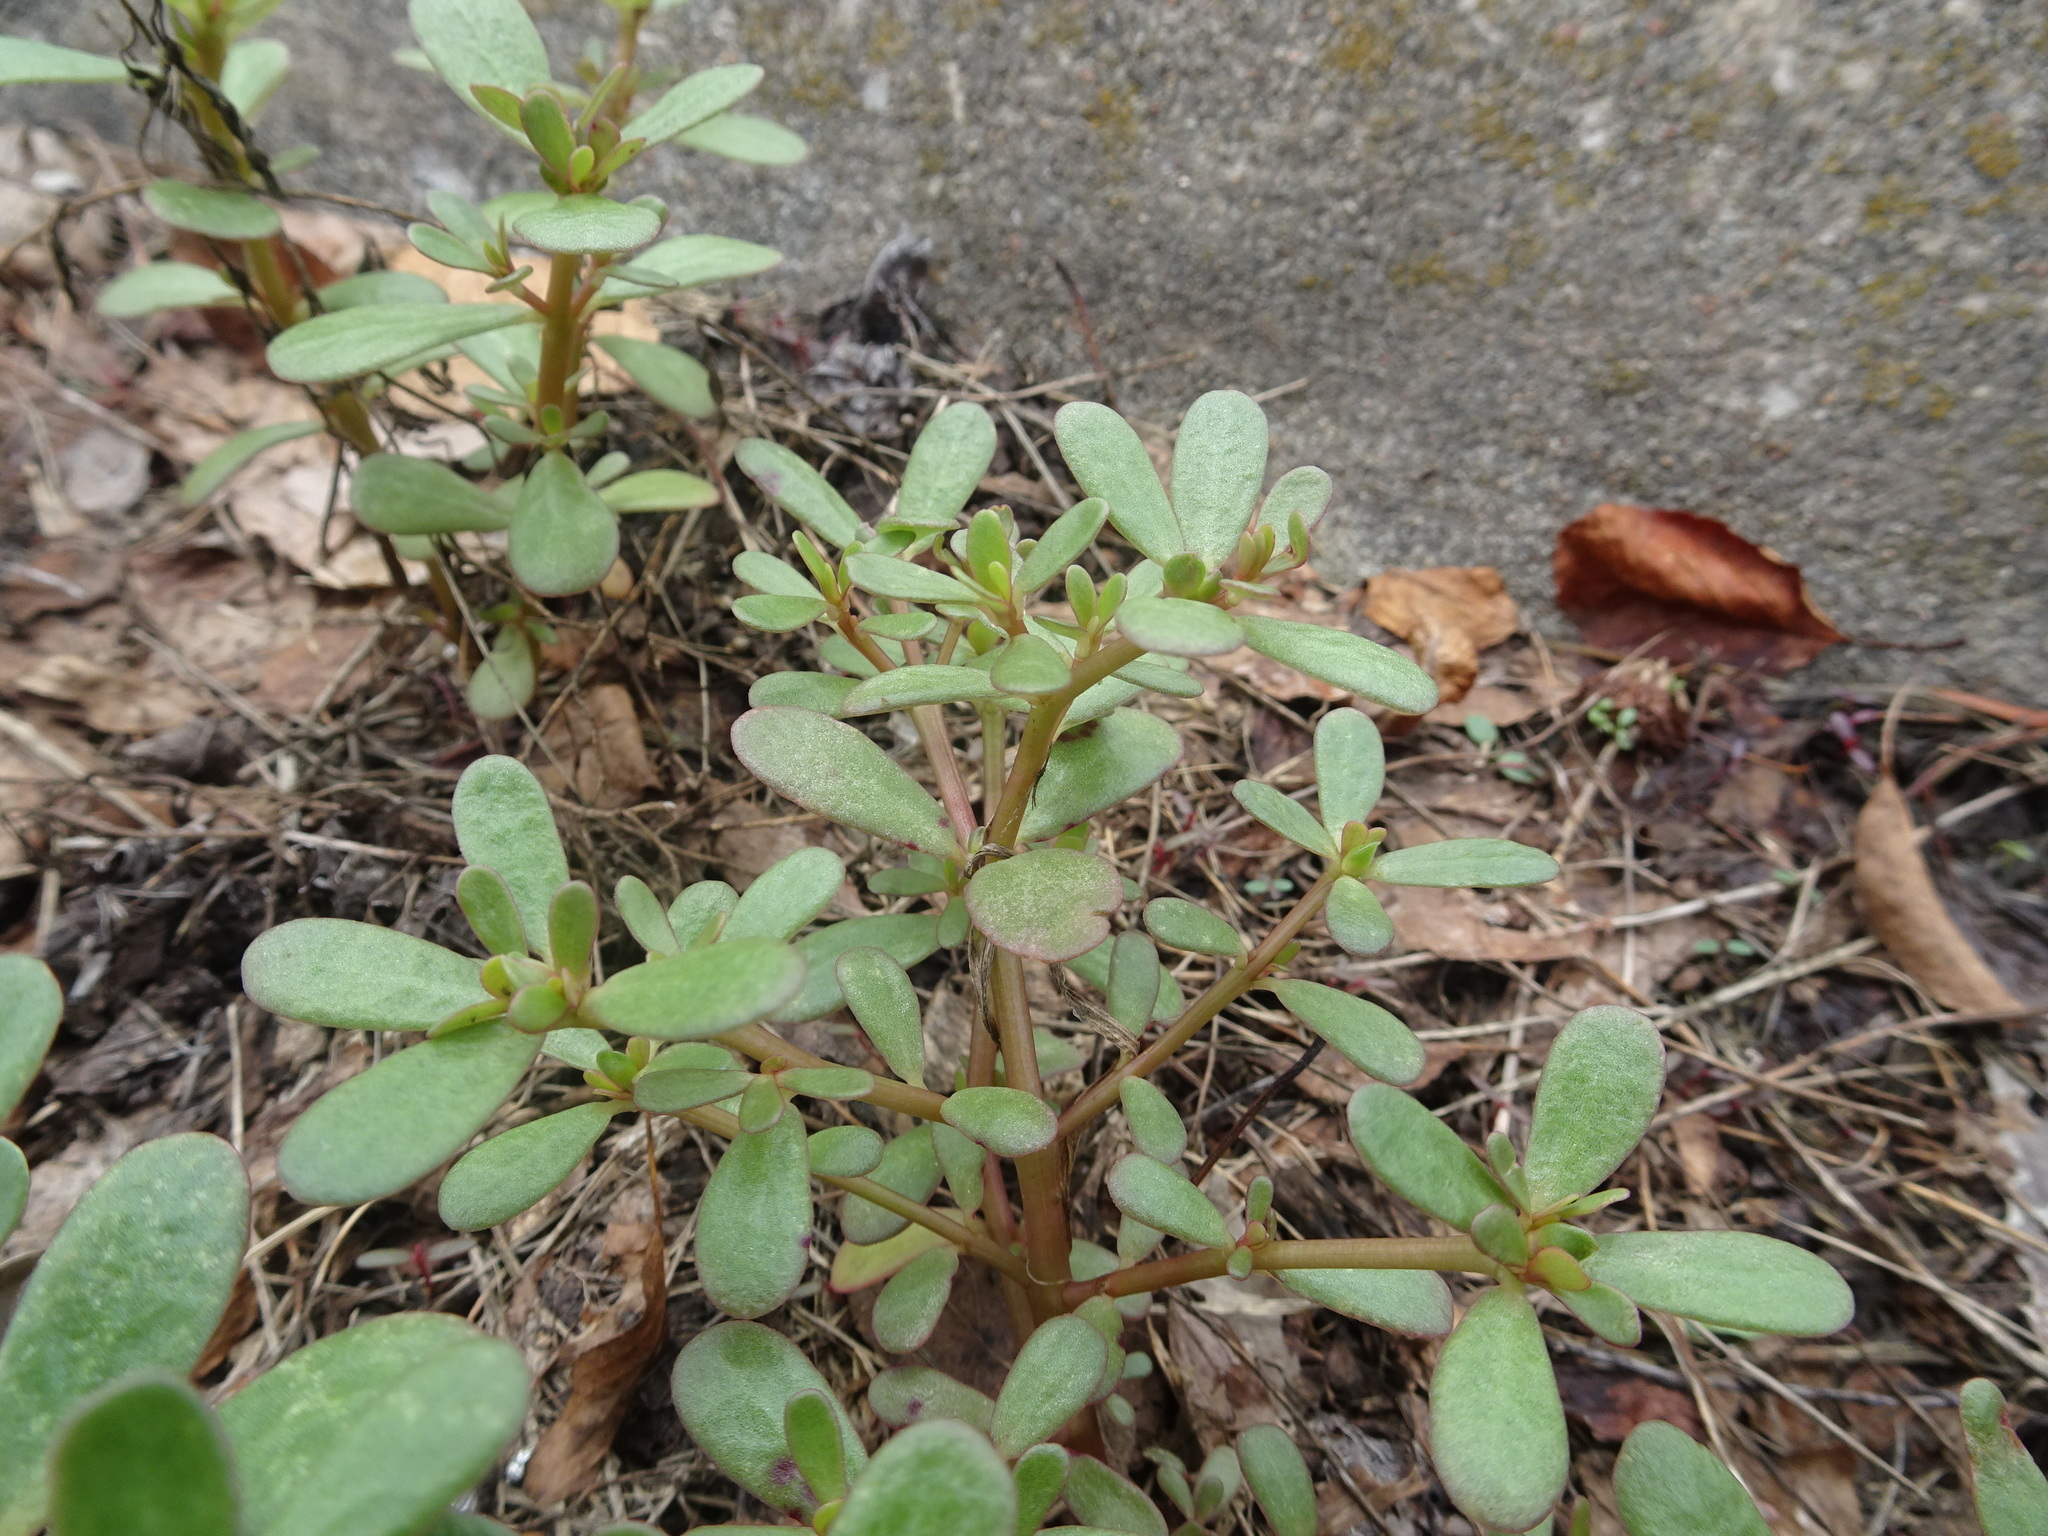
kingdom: Plantae
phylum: Tracheophyta
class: Magnoliopsida
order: Caryophyllales
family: Portulacaceae
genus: Portulaca
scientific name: Portulaca oleracea
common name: Common purslane
